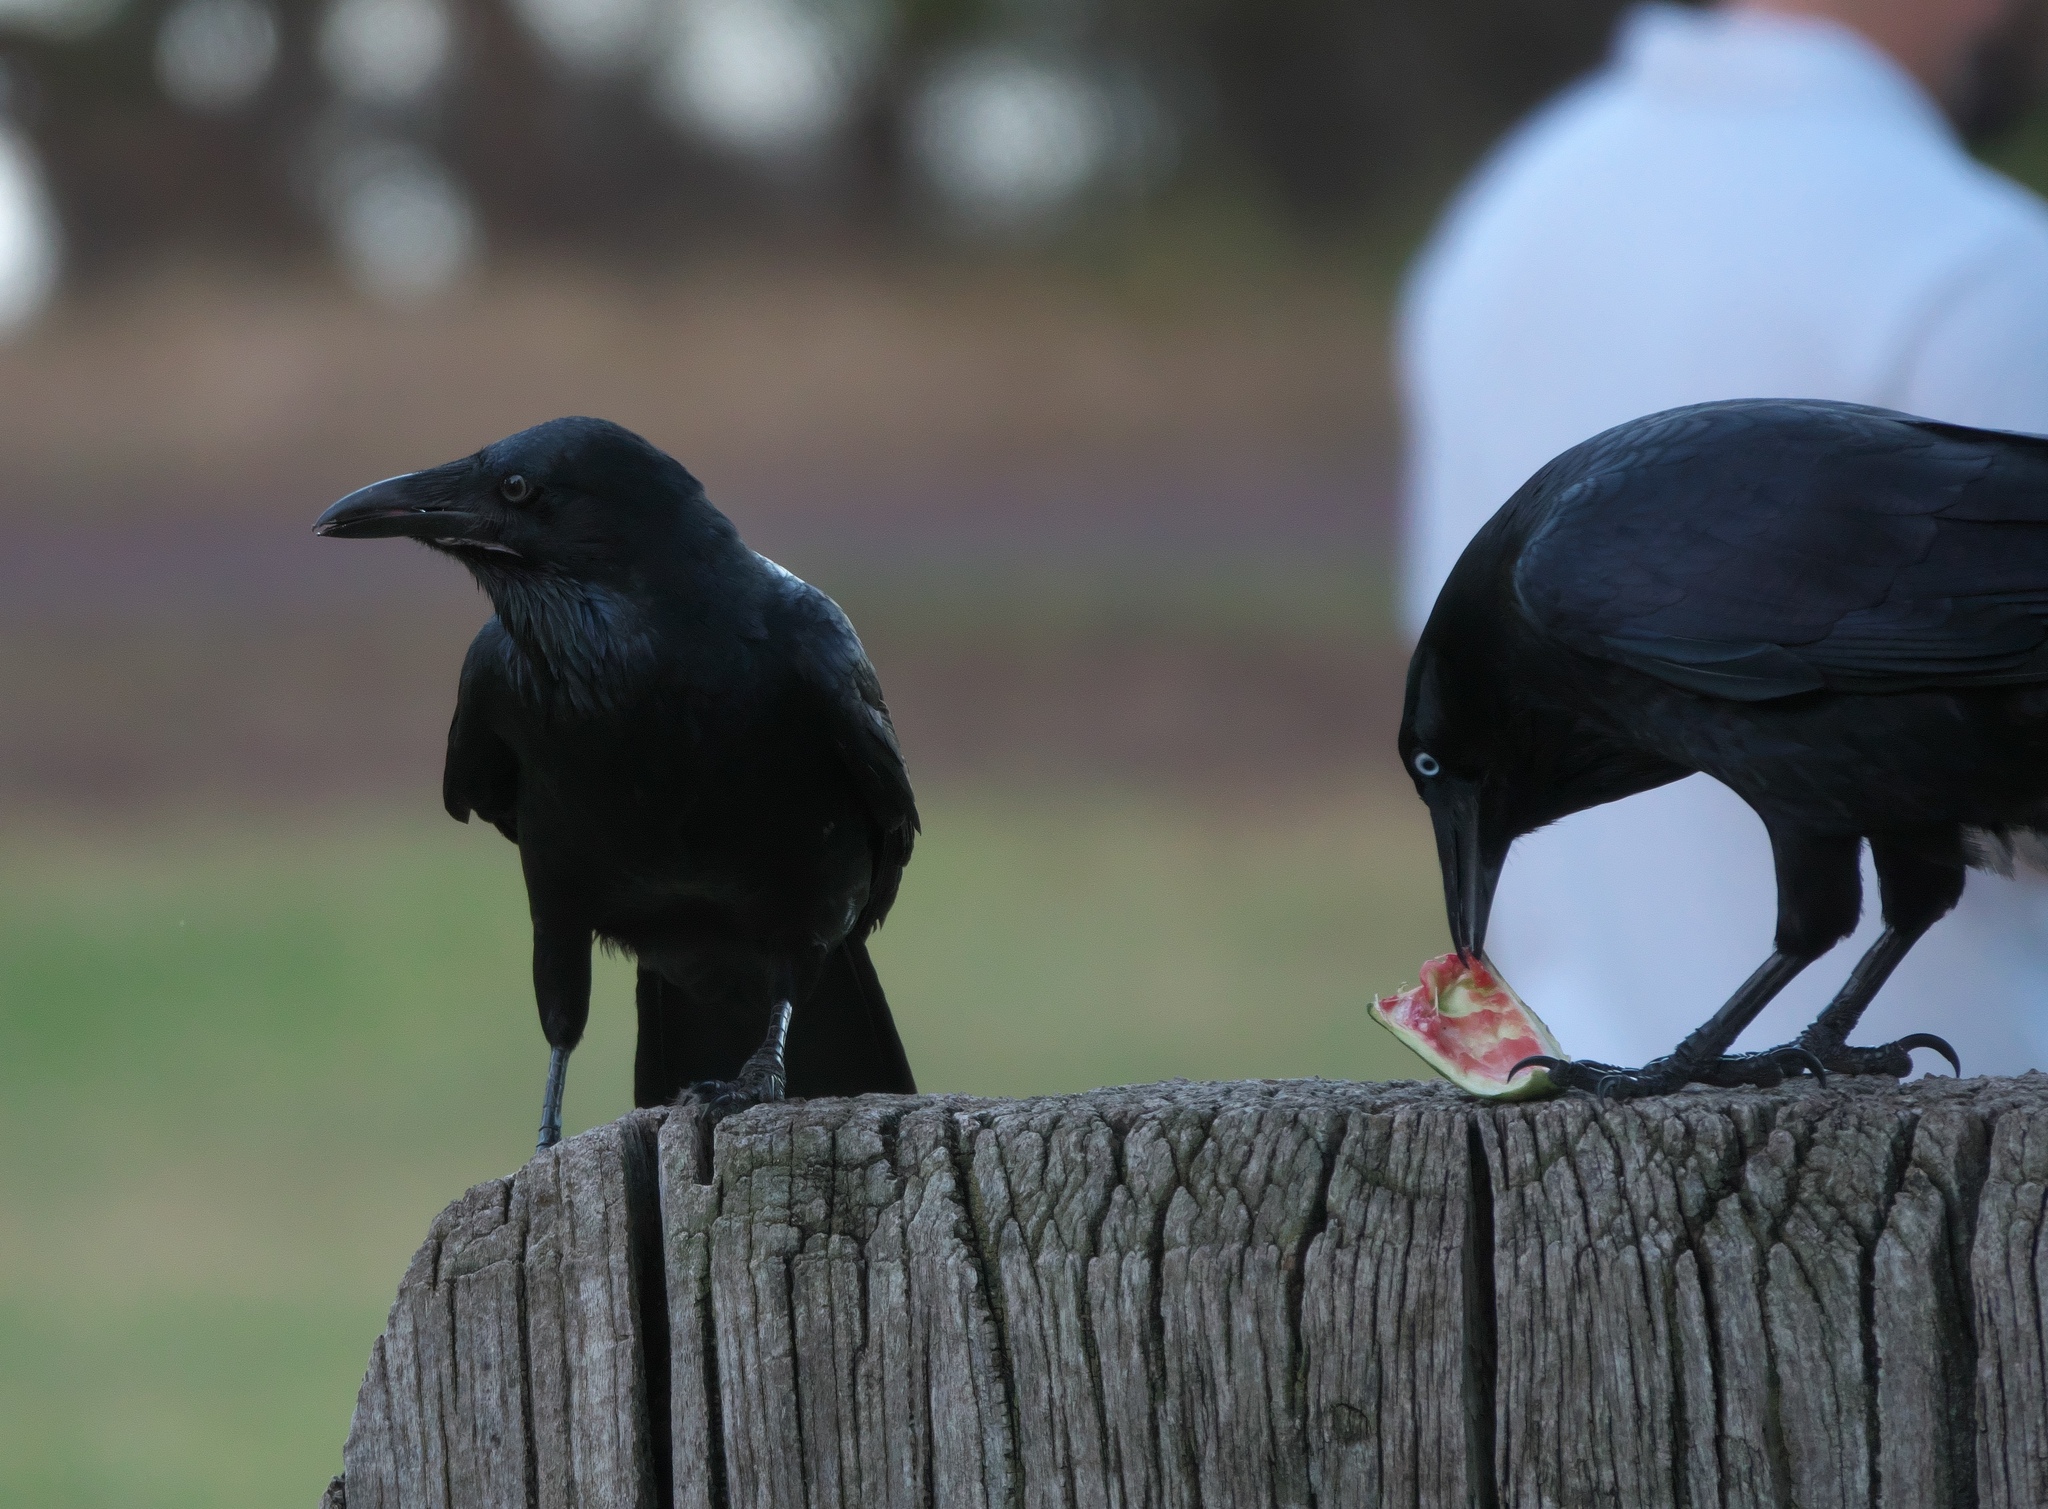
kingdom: Animalia
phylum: Chordata
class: Aves
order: Passeriformes
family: Corvidae
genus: Corvus
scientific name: Corvus coronoides
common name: Australian raven
